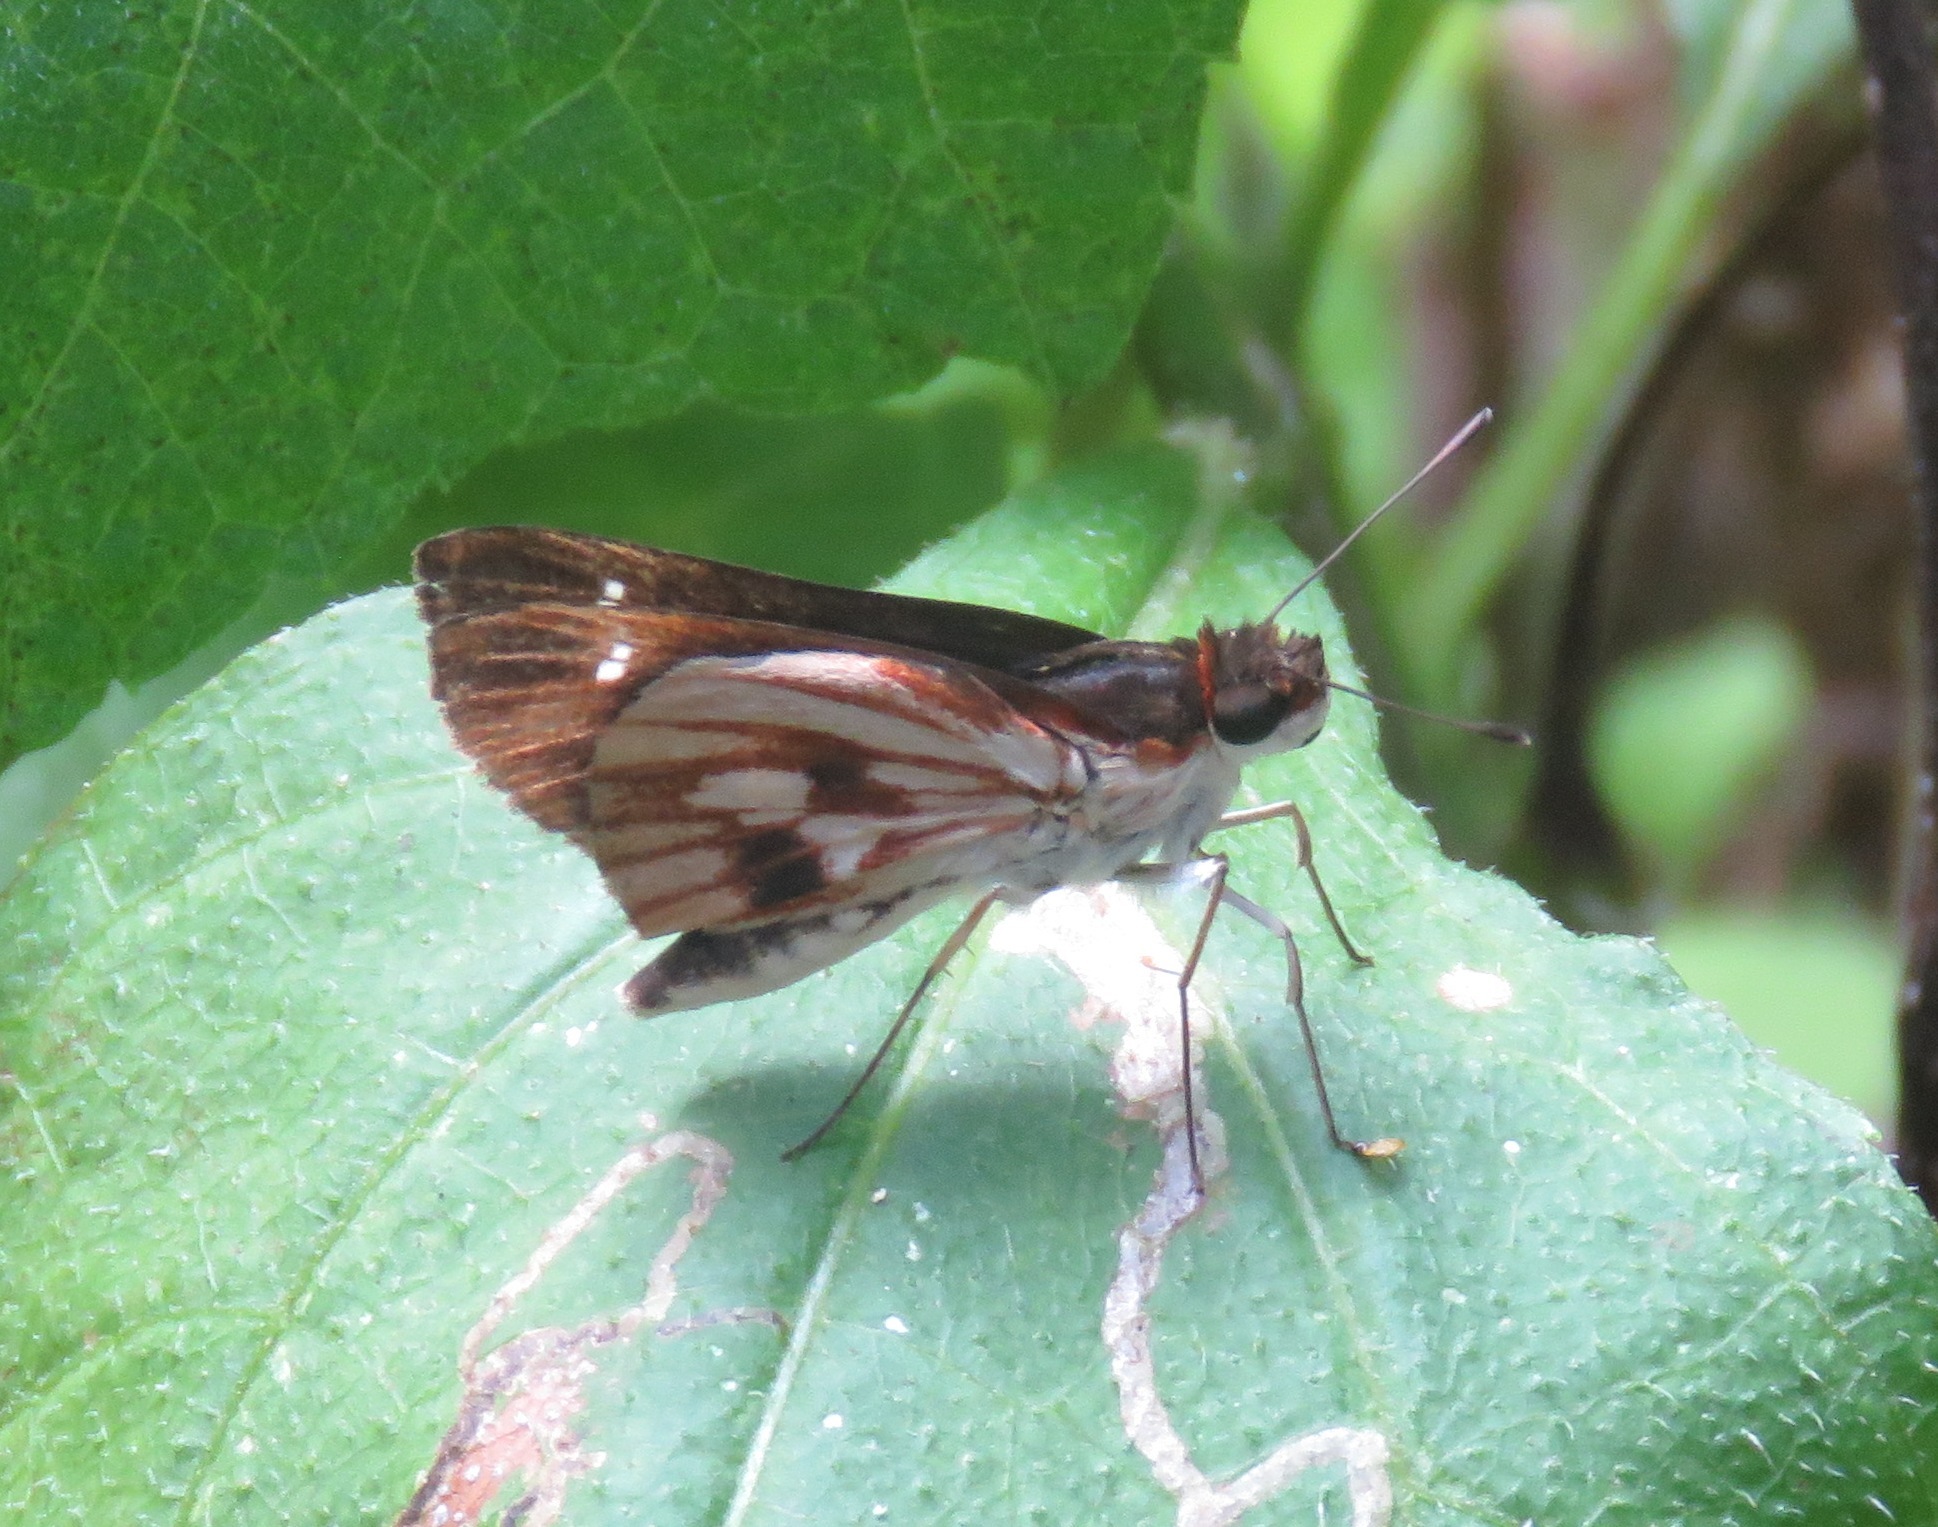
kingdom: Animalia
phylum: Arthropoda
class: Insecta
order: Lepidoptera
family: Hesperiidae
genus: Troyus
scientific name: Troyus fantasos
